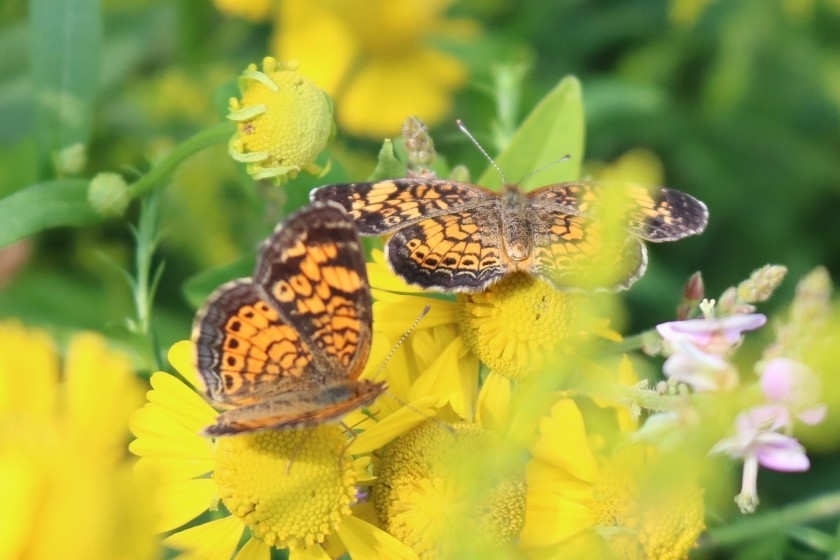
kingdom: Animalia
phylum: Arthropoda
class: Insecta
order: Lepidoptera
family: Nymphalidae
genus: Phyciodes
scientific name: Phyciodes tharos
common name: Pearl crescent
